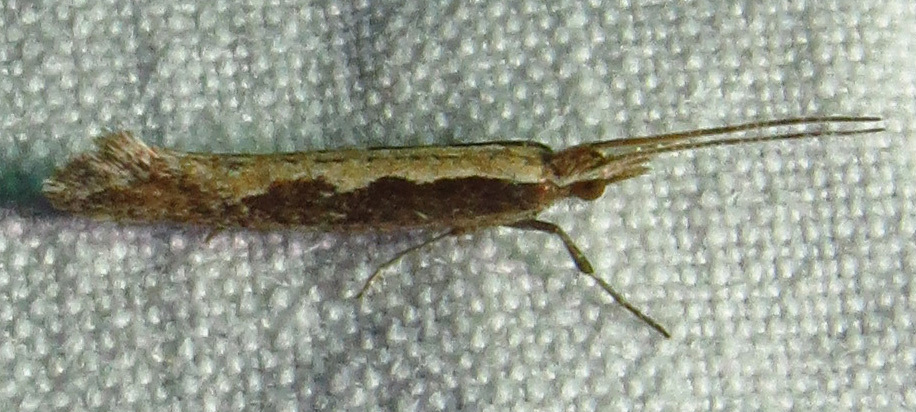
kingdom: Animalia
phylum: Arthropoda
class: Insecta
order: Lepidoptera
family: Plutellidae
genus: Plutella
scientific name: Plutella xylostella
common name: Diamond-back moth
